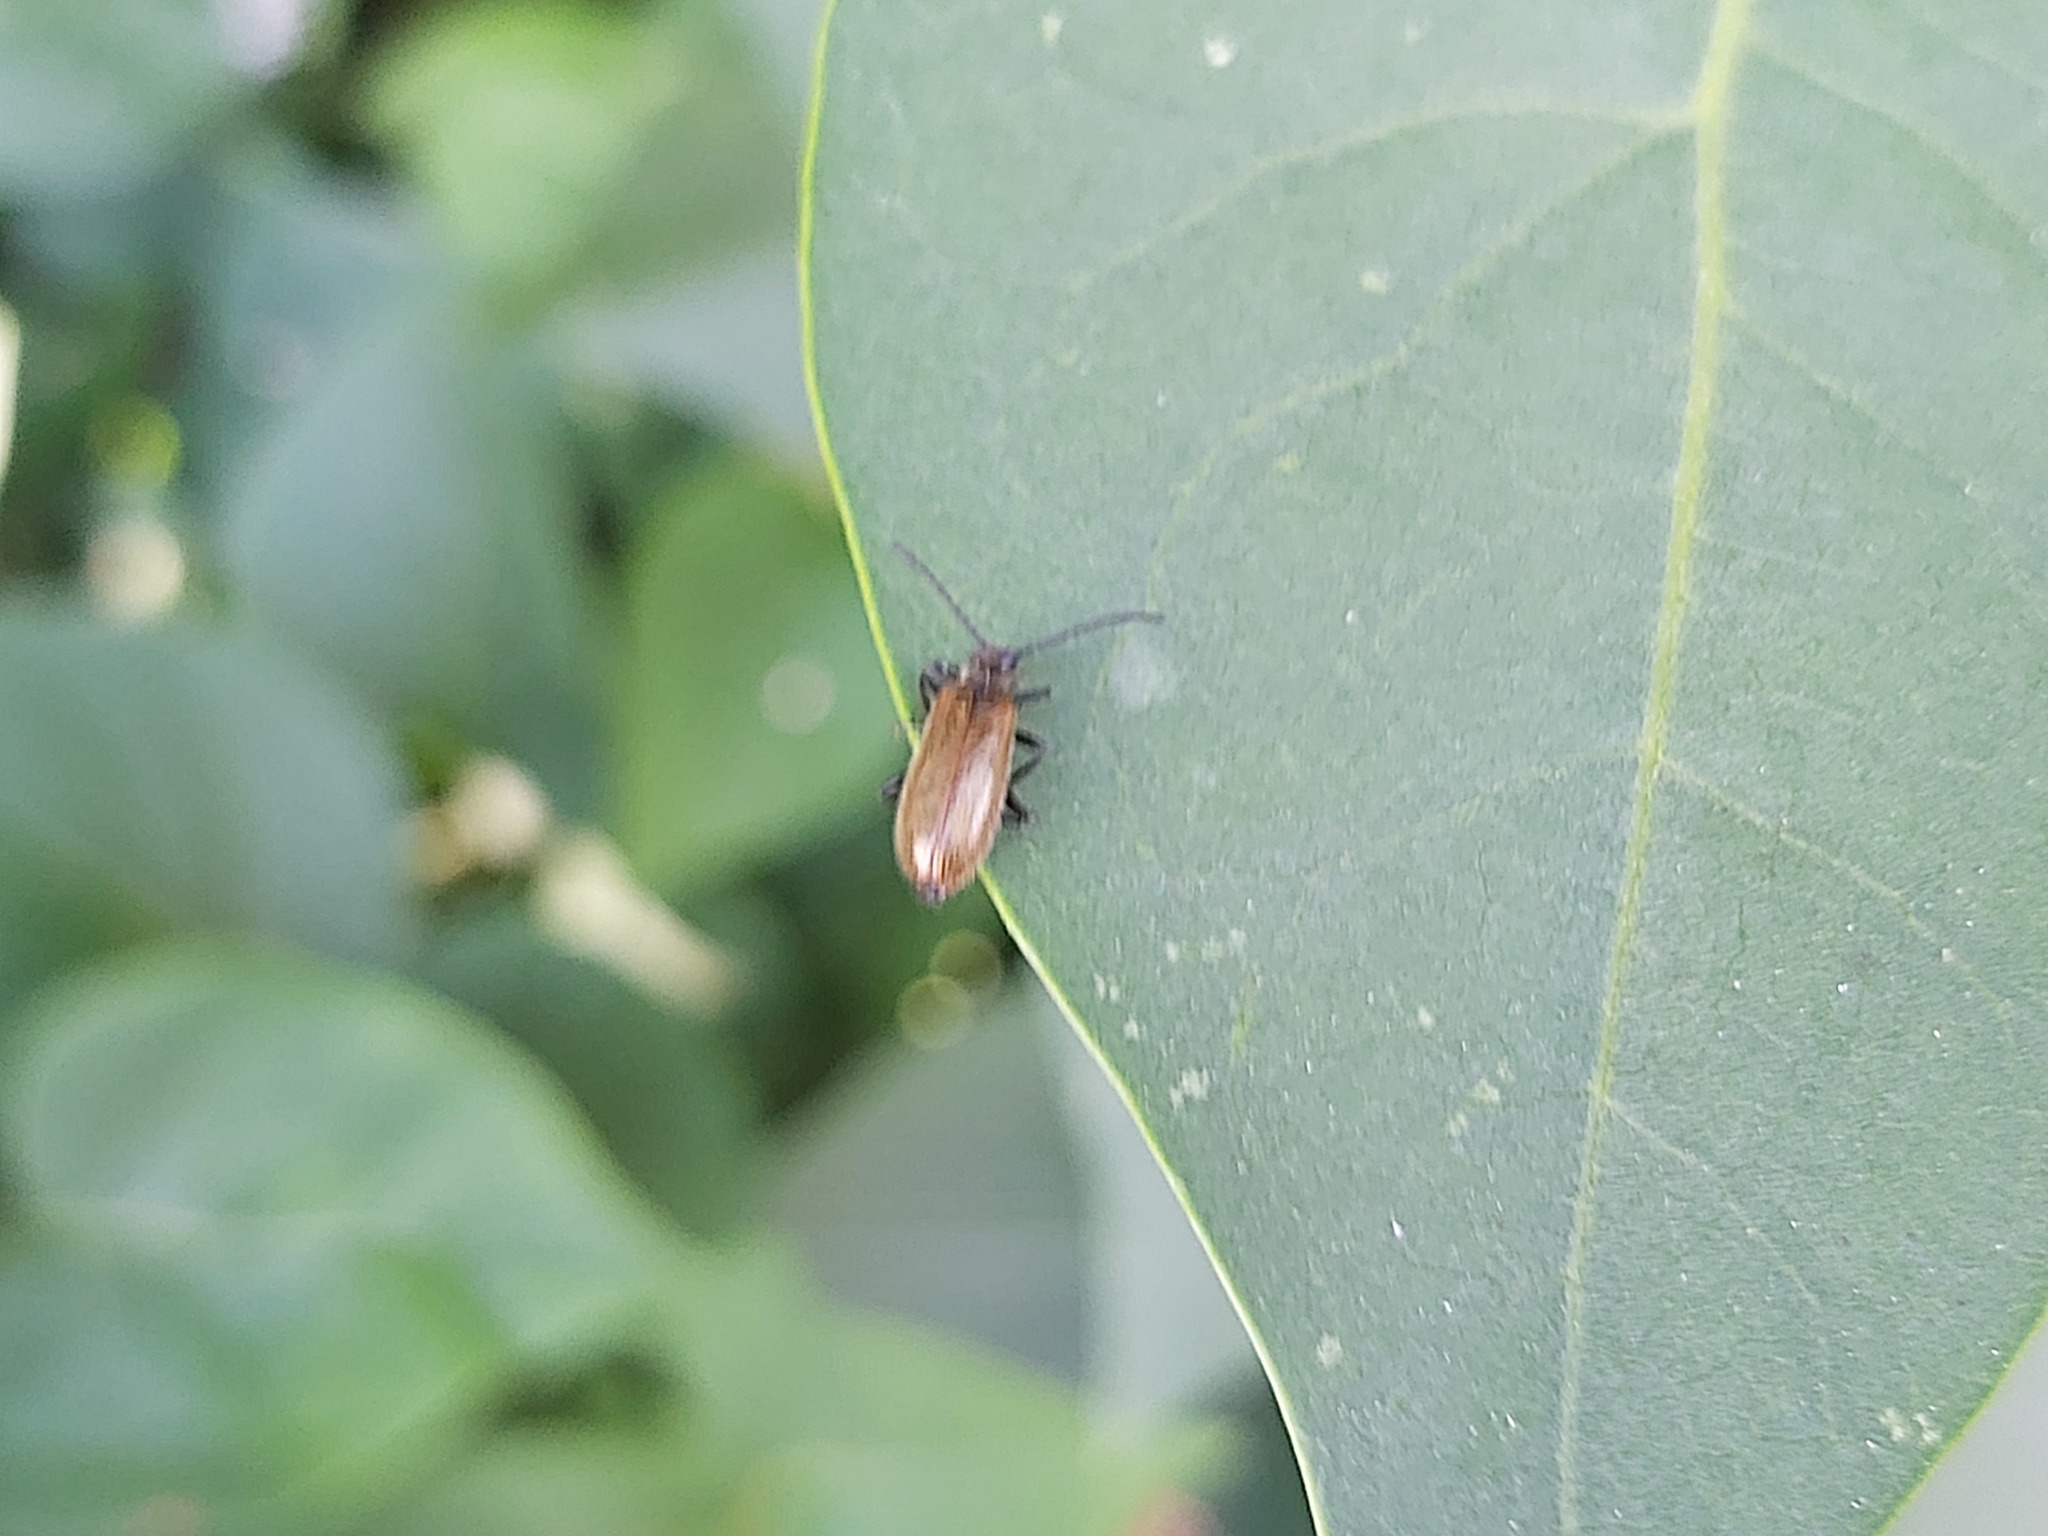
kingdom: Animalia
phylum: Arthropoda
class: Insecta
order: Coleoptera
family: Tenebrionidae
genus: Lagria
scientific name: Lagria hirta
